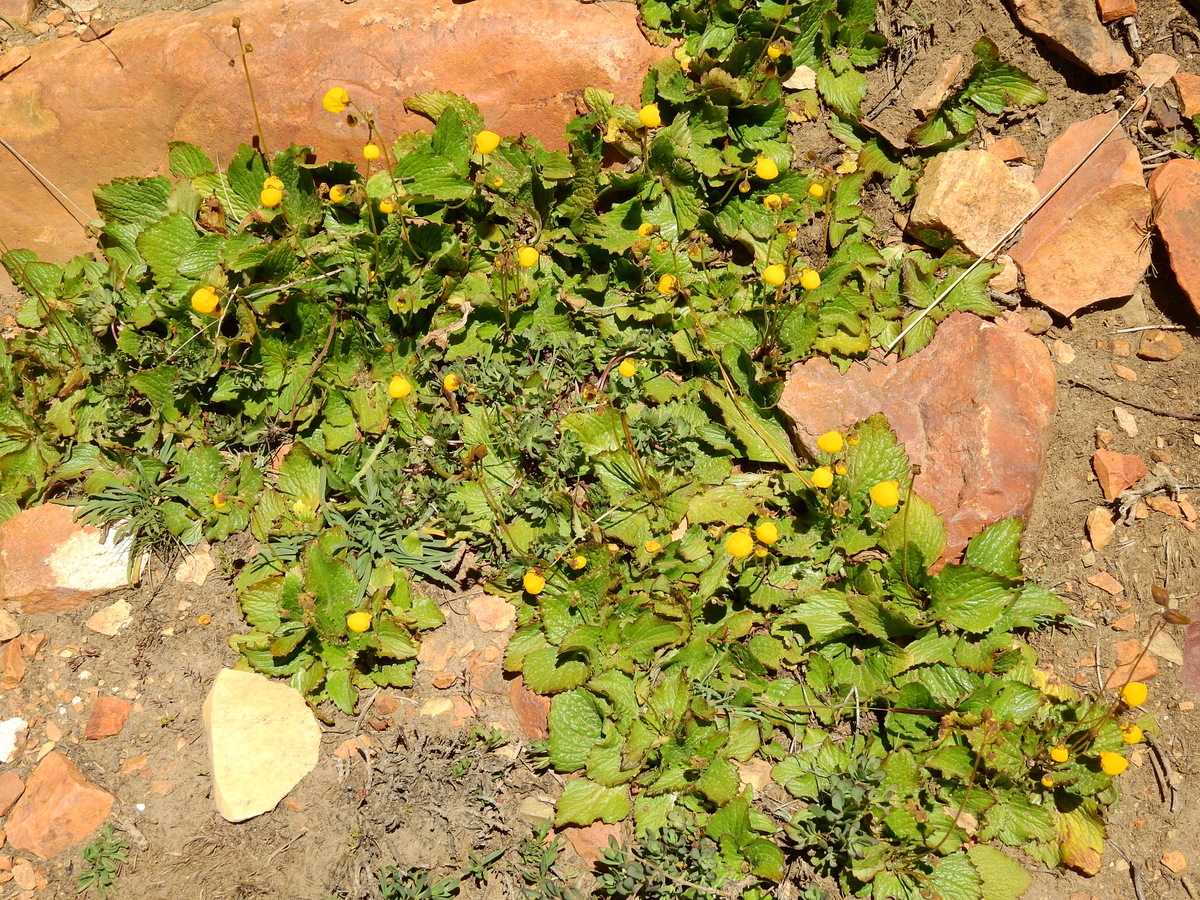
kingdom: Plantae
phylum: Tracheophyta
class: Magnoliopsida
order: Lamiales
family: Calceolariaceae
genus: Calceolaria
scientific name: Calceolaria filicaulis
